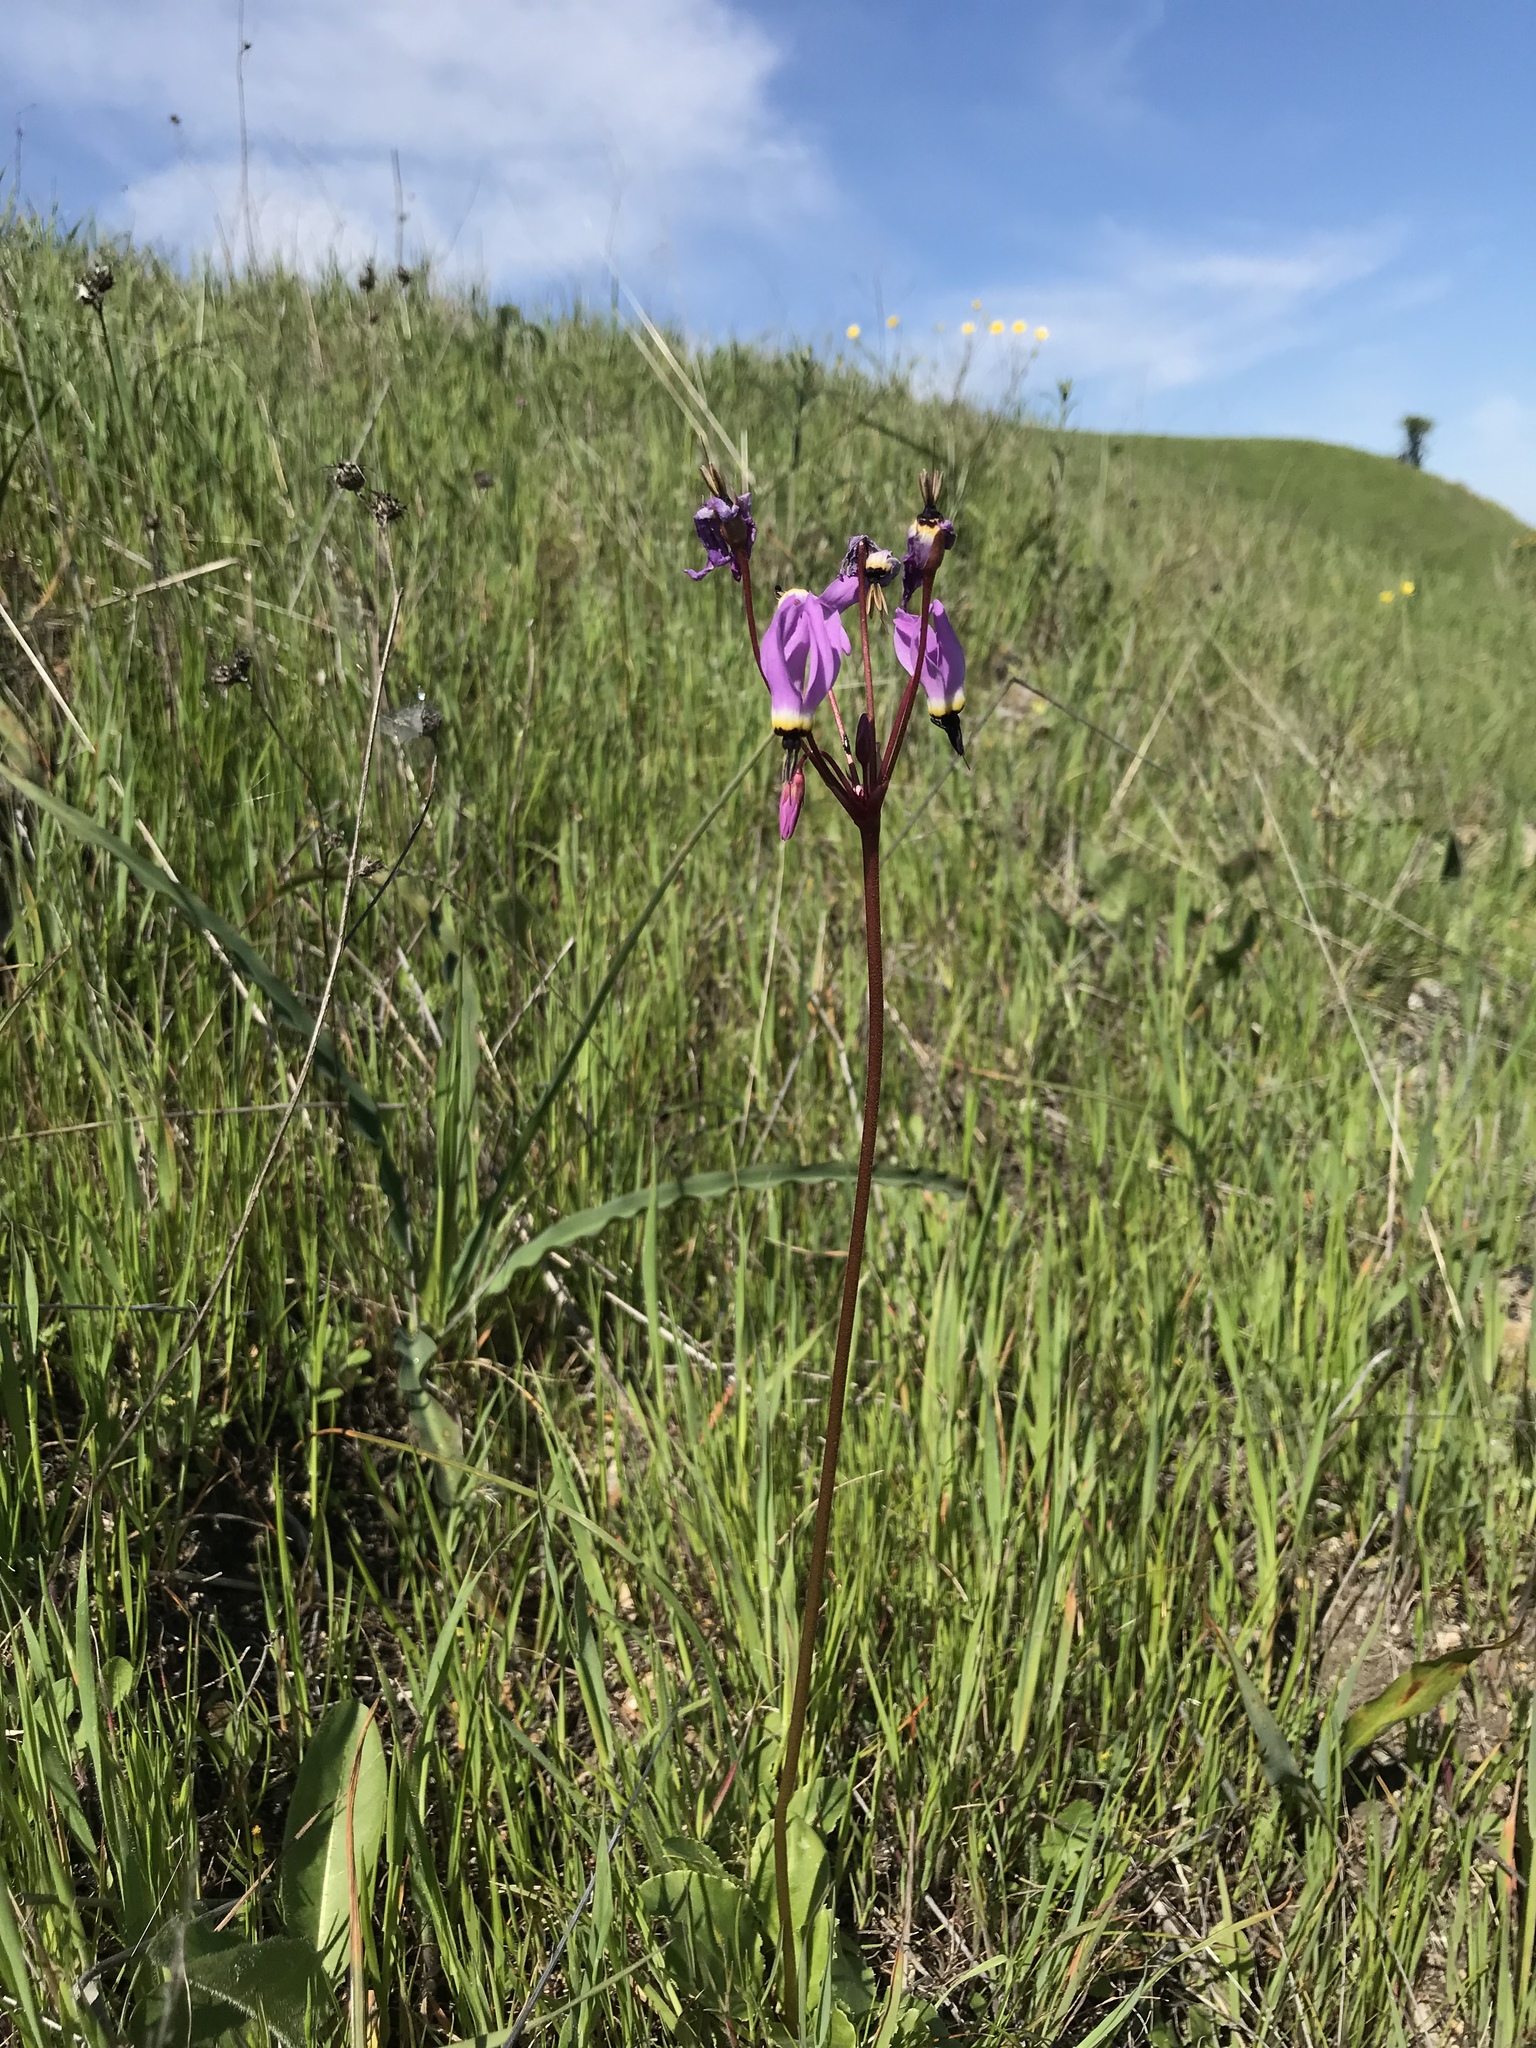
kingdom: Plantae
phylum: Tracheophyta
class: Magnoliopsida
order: Ericales
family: Primulaceae
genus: Dodecatheon
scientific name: Dodecatheon hendersonii
